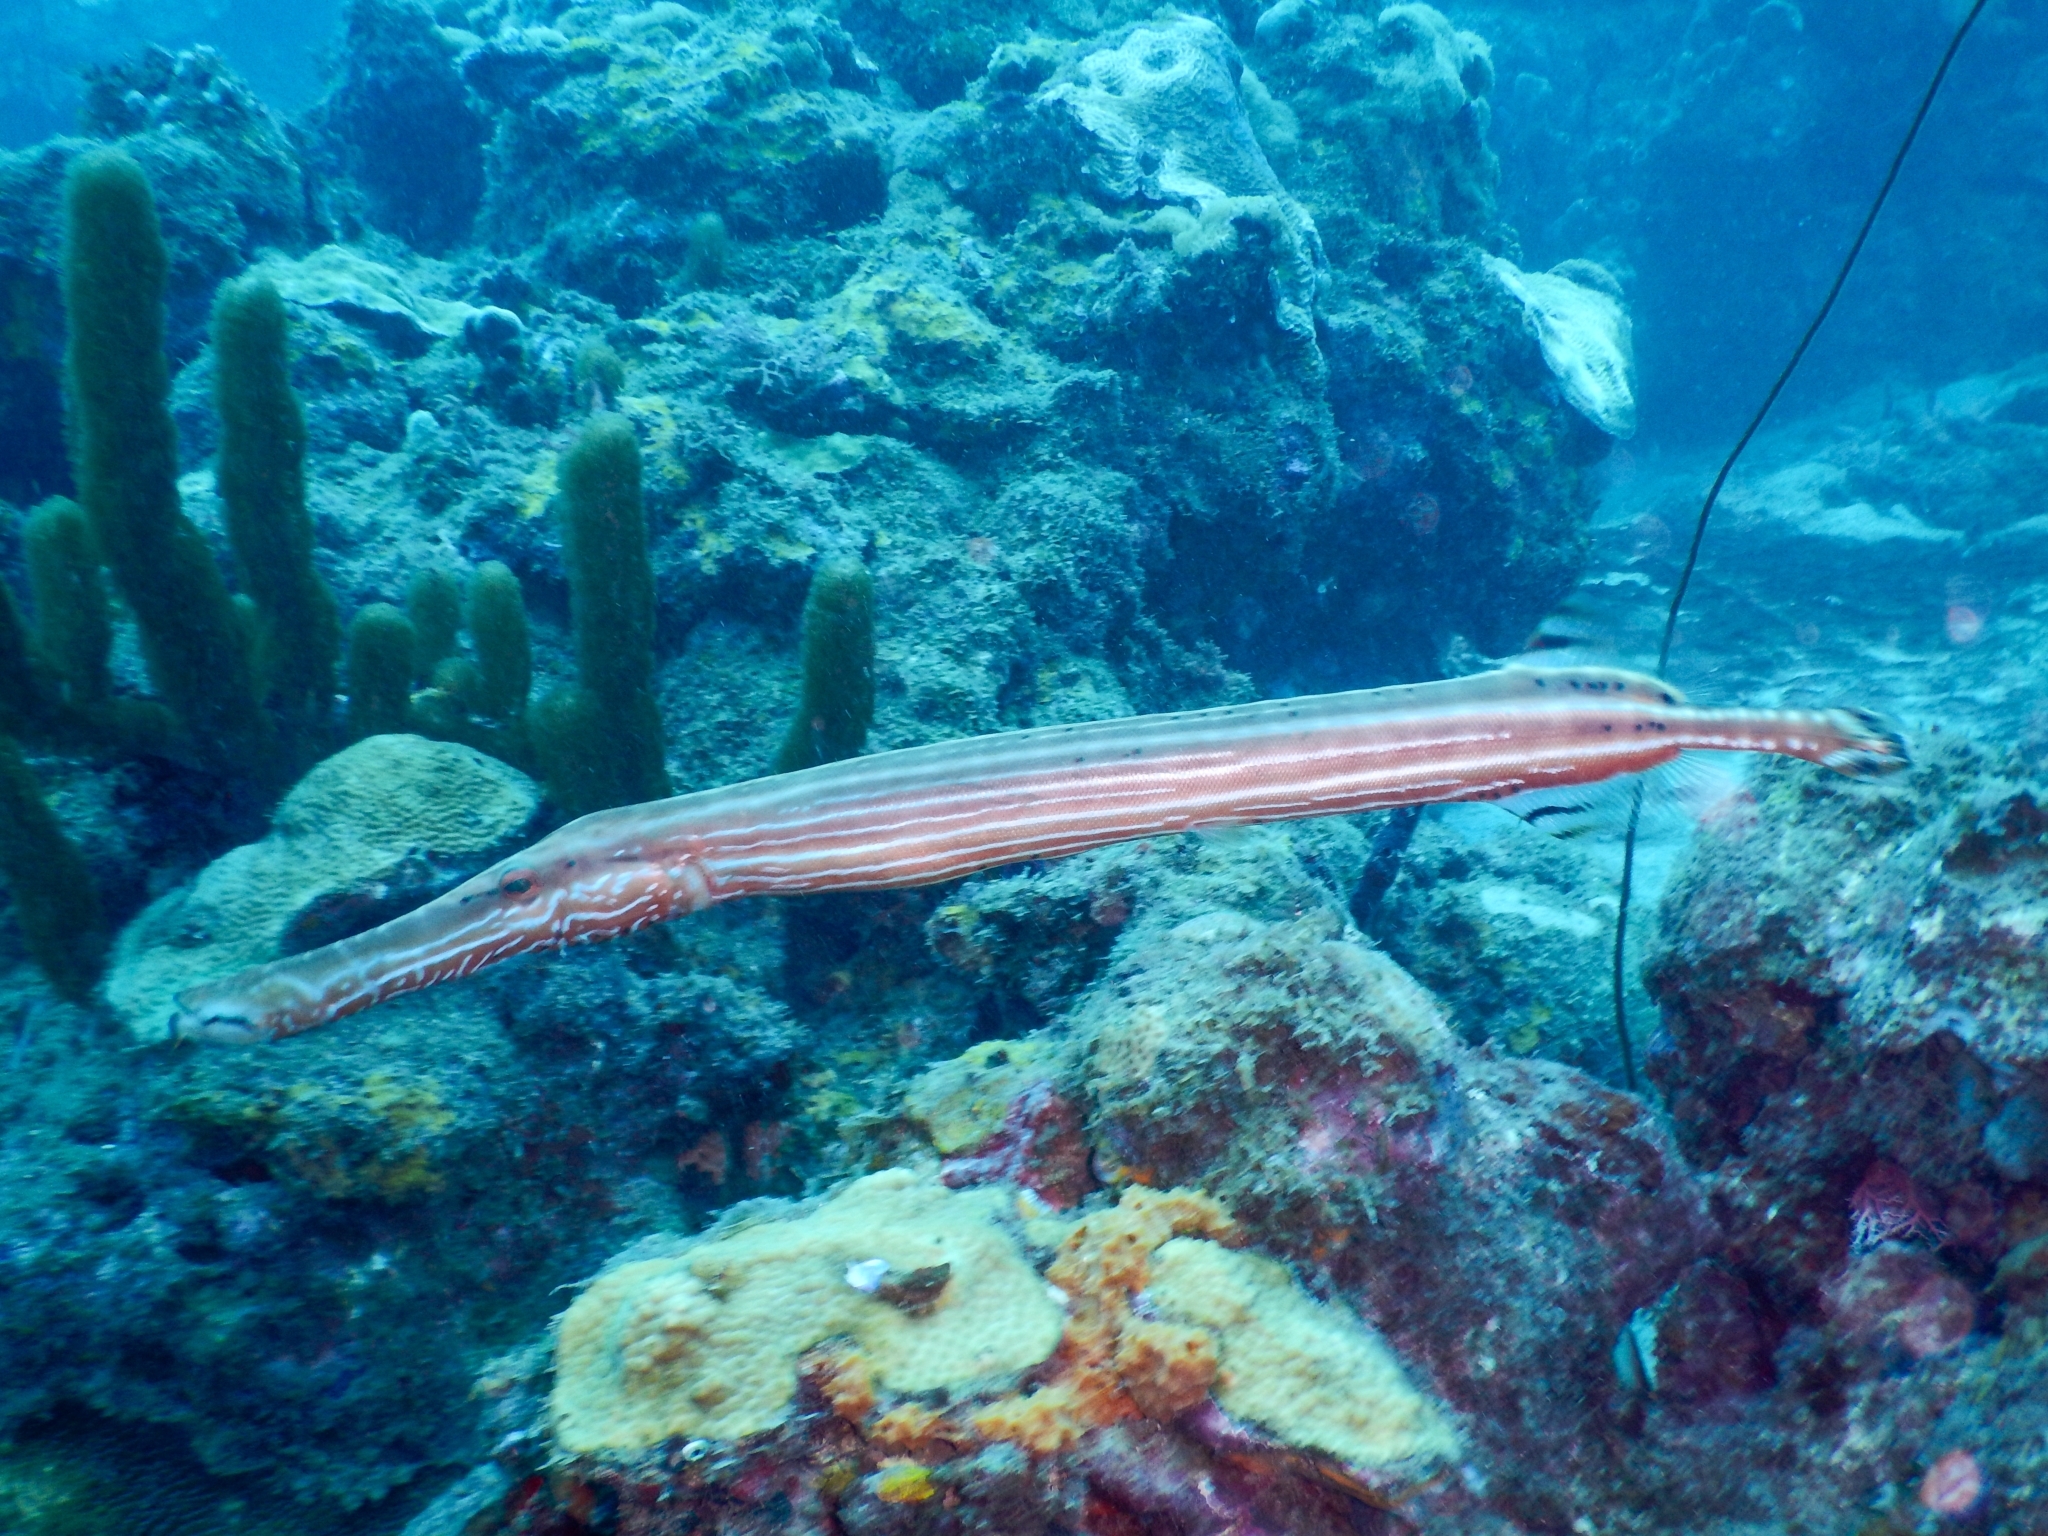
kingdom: Animalia
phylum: Chordata
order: Syngnathiformes
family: Aulostomidae
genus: Aulostomus
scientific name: Aulostomus maculatus
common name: West atlantic trumpetfish
